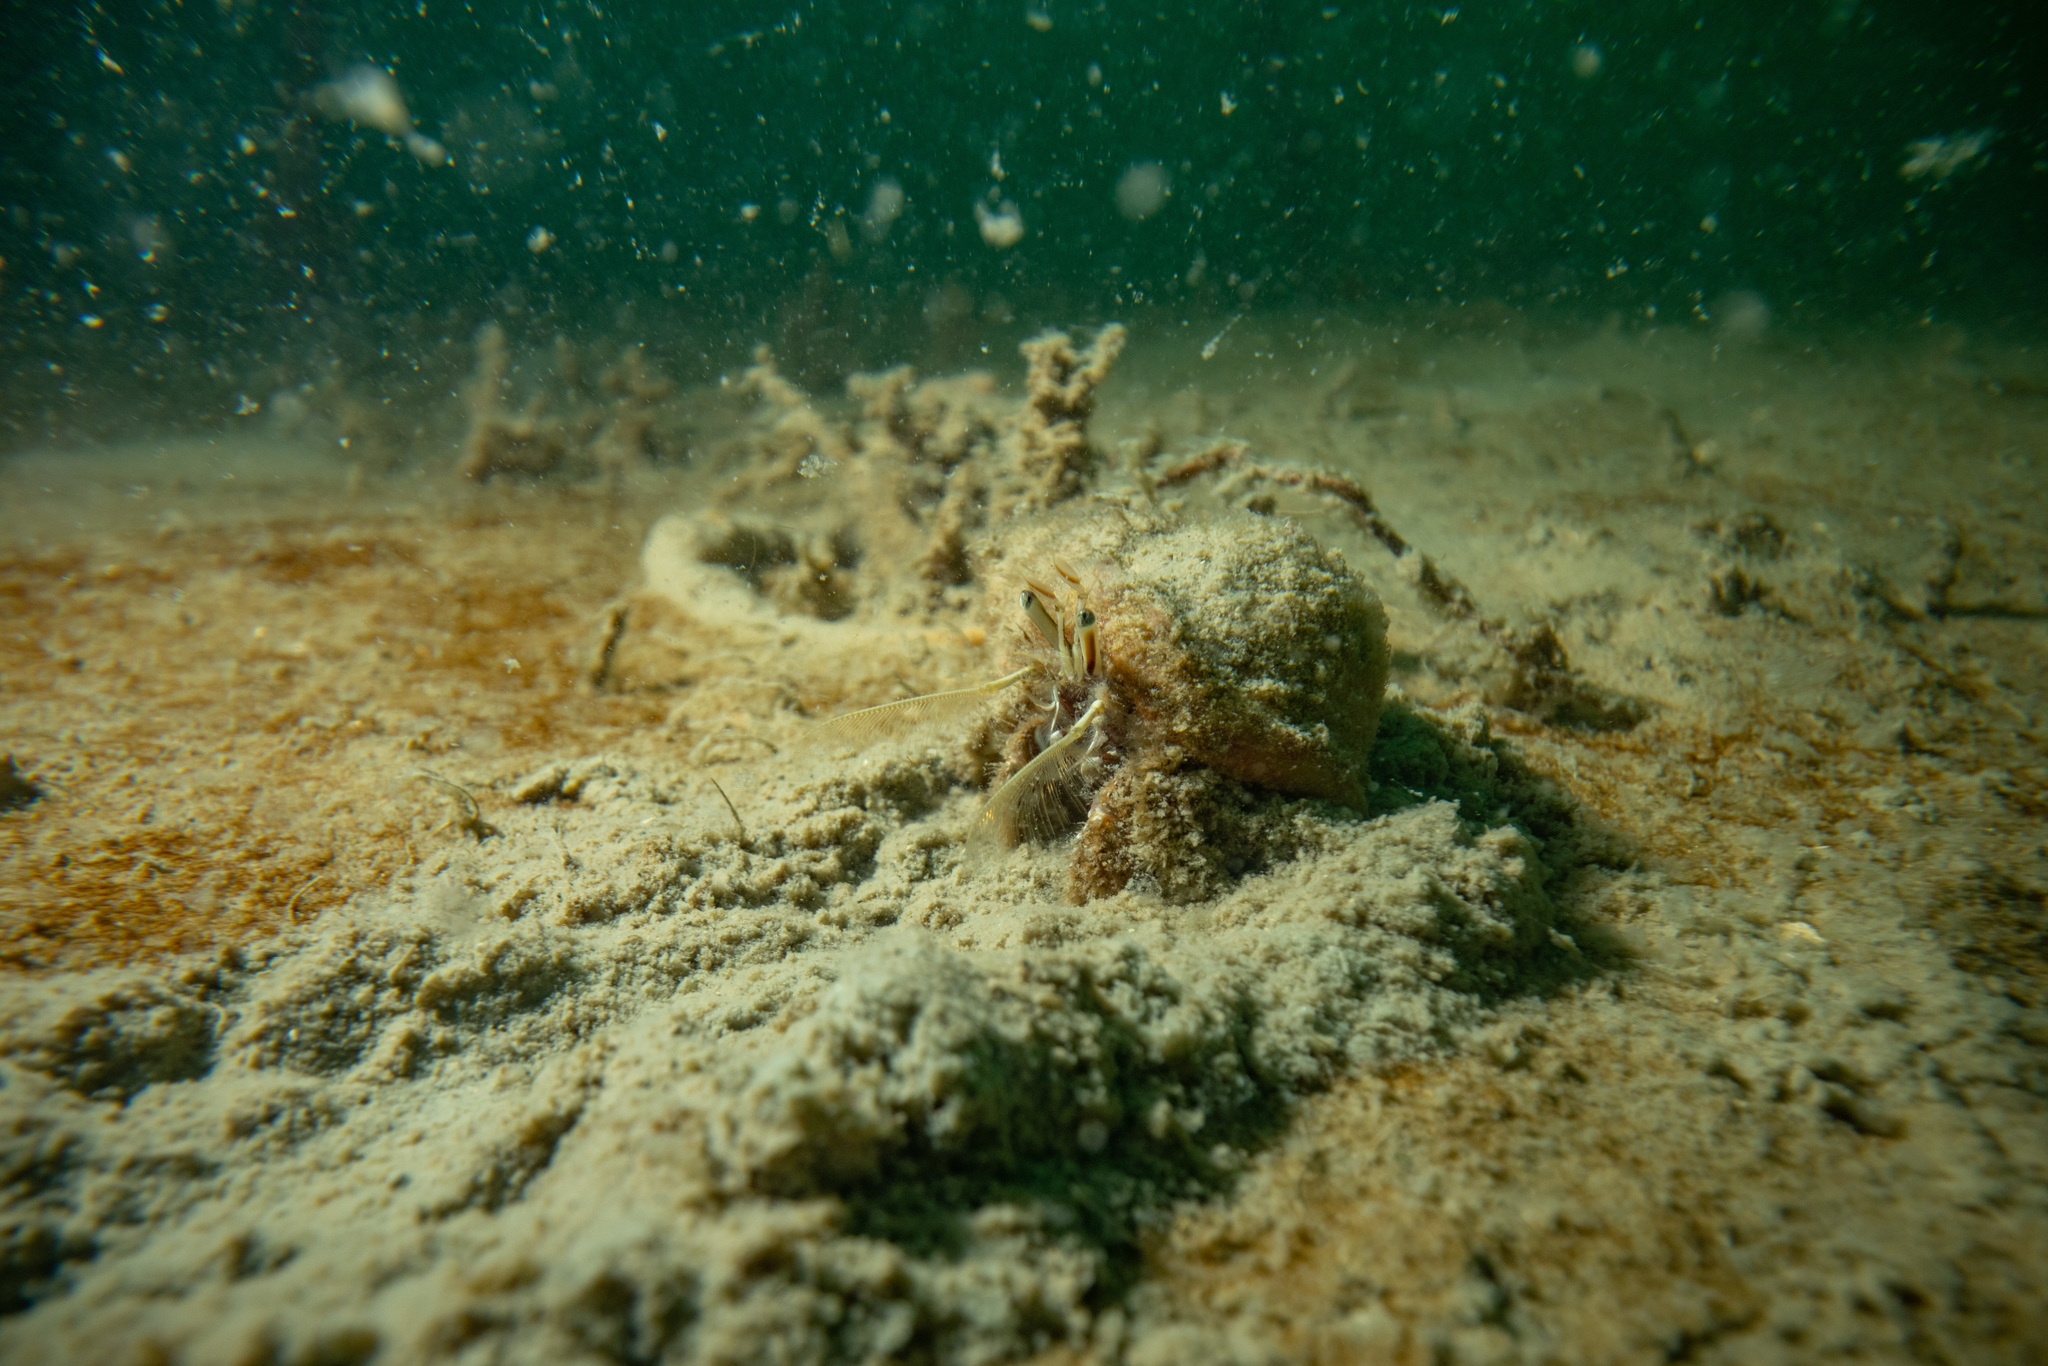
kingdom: Animalia
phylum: Arthropoda
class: Malacostraca
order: Decapoda
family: Diogenidae
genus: Areopaguristes
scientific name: Areopaguristes setosus
